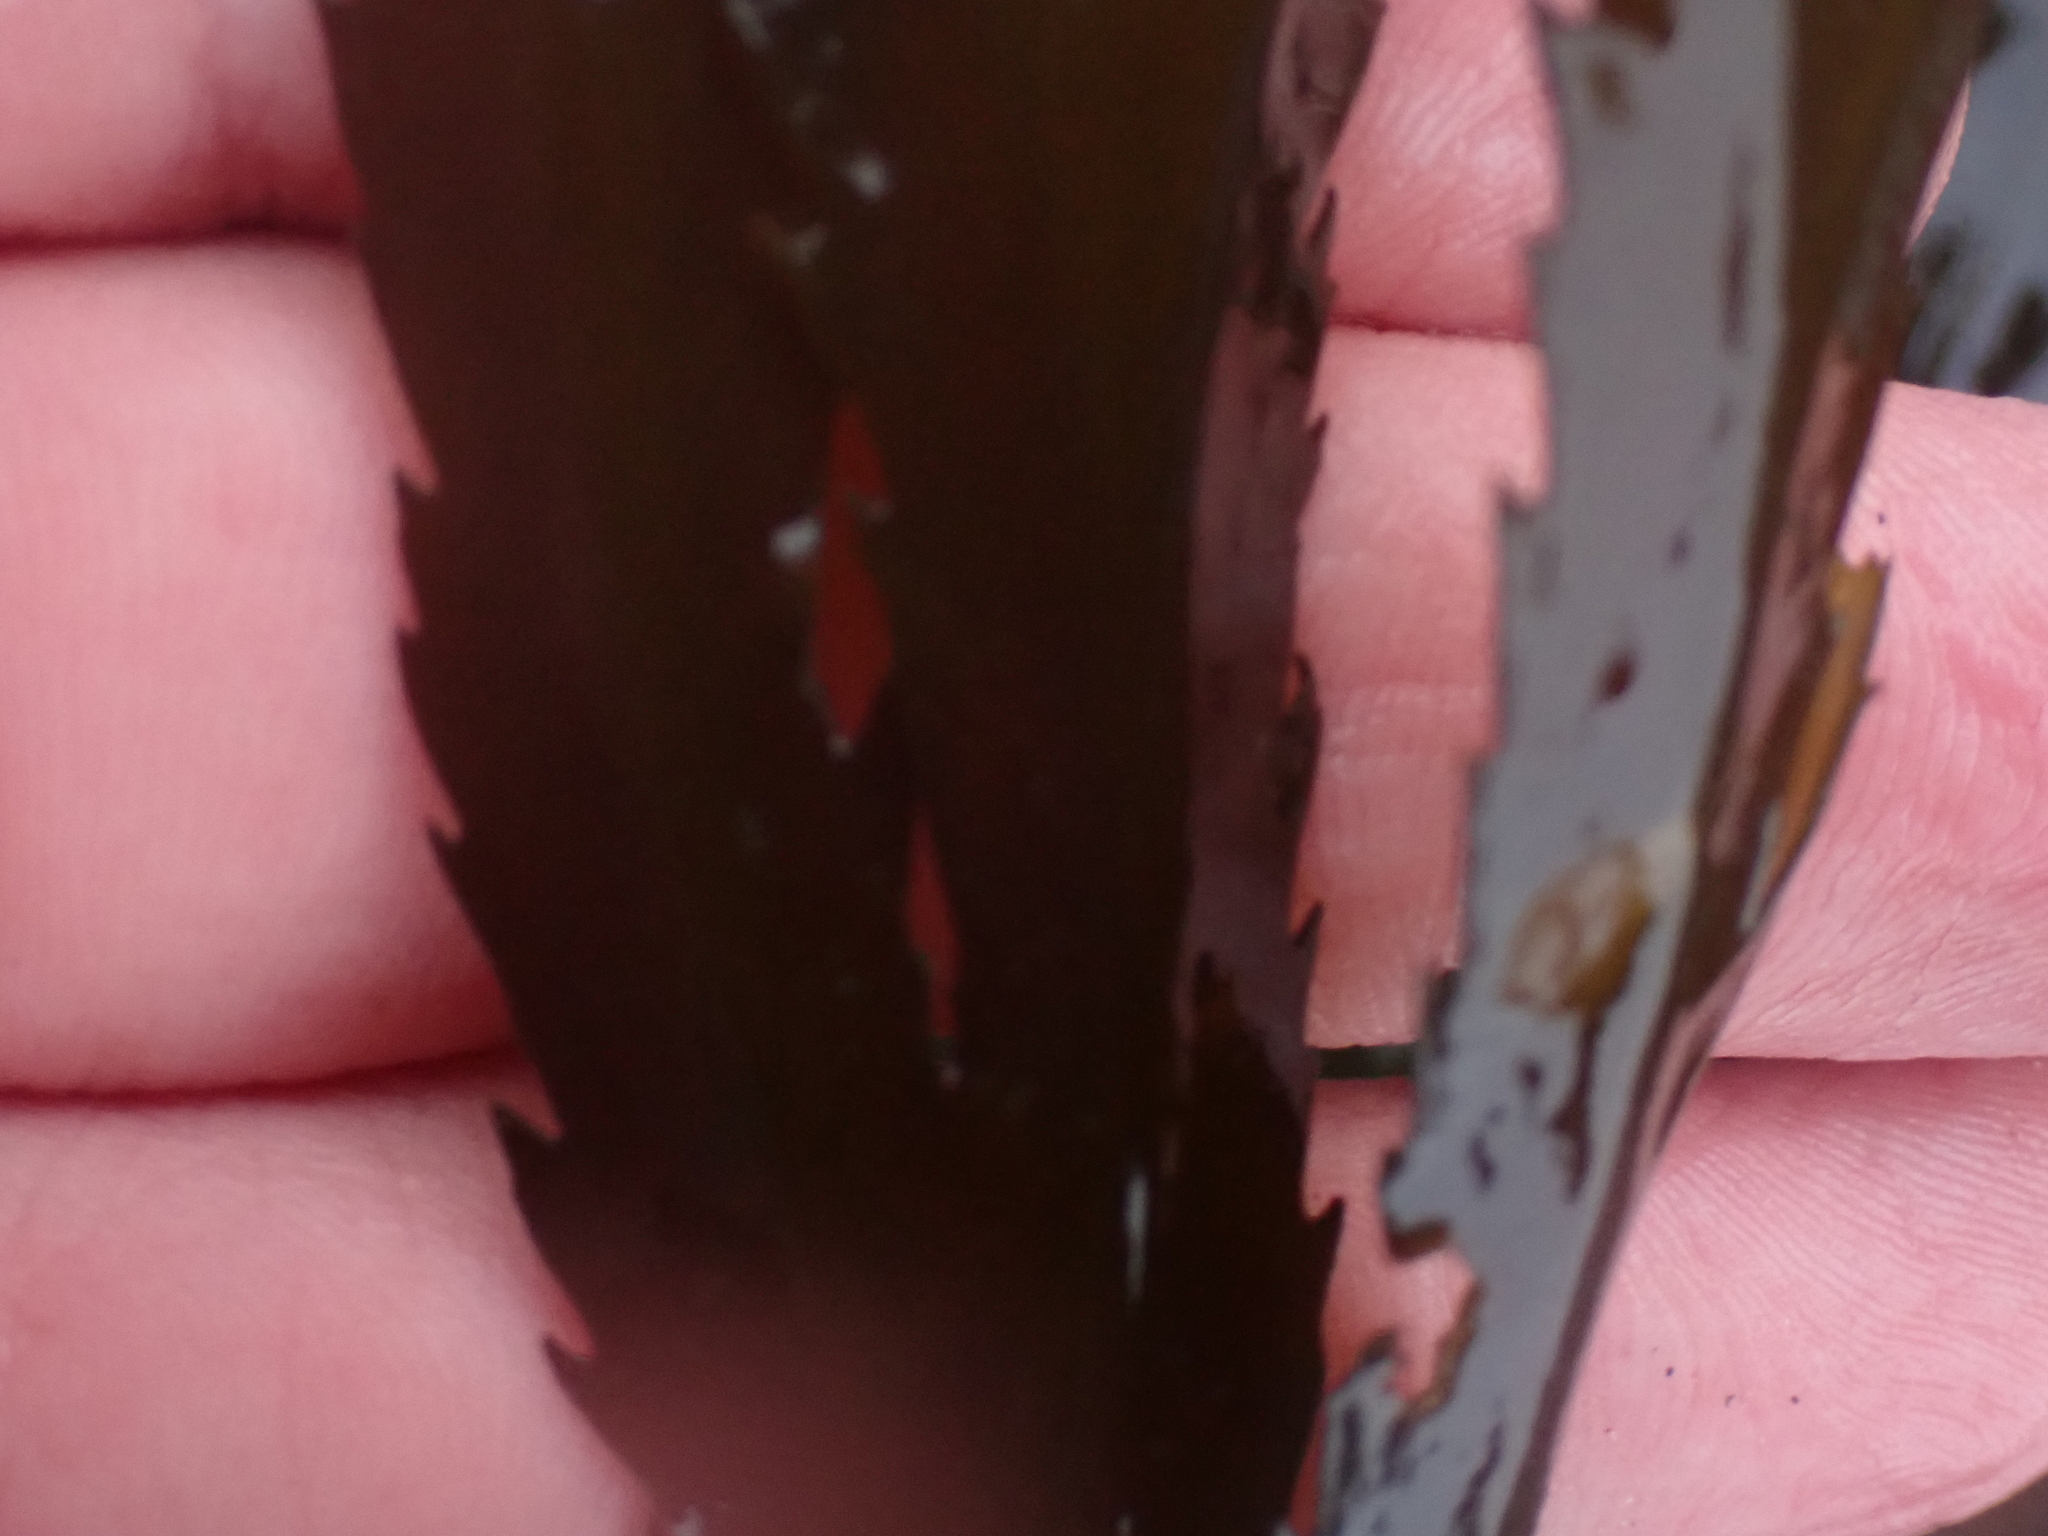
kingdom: Chromista
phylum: Ochrophyta
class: Phaeophyceae
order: Fucales
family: Fucaceae
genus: Fucus
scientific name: Fucus serratus
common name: Toothed wrack
